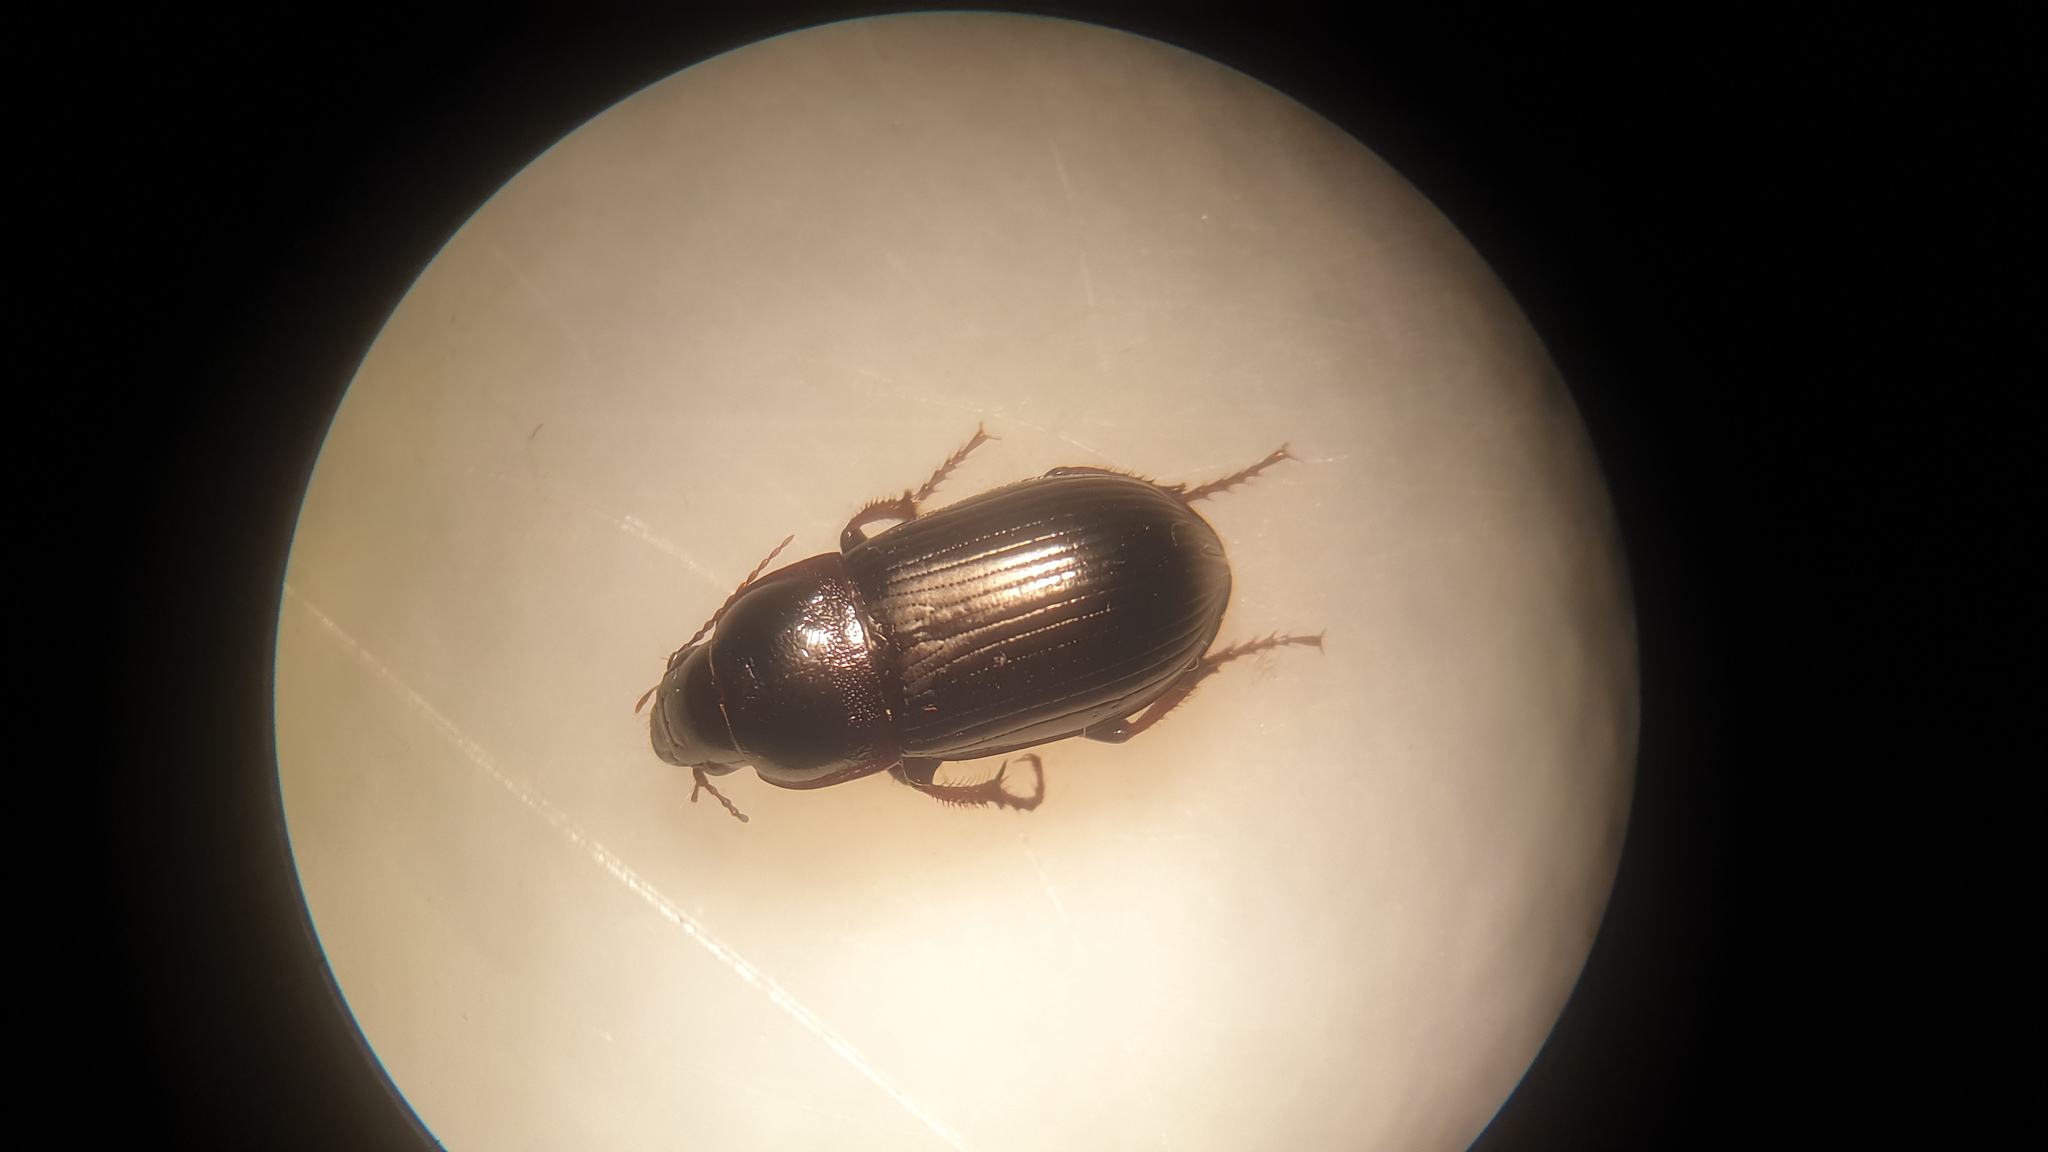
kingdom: Animalia
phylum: Arthropoda
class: Insecta
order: Coleoptera
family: Carabidae
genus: Zabrus
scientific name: Zabrus tenebrioides
